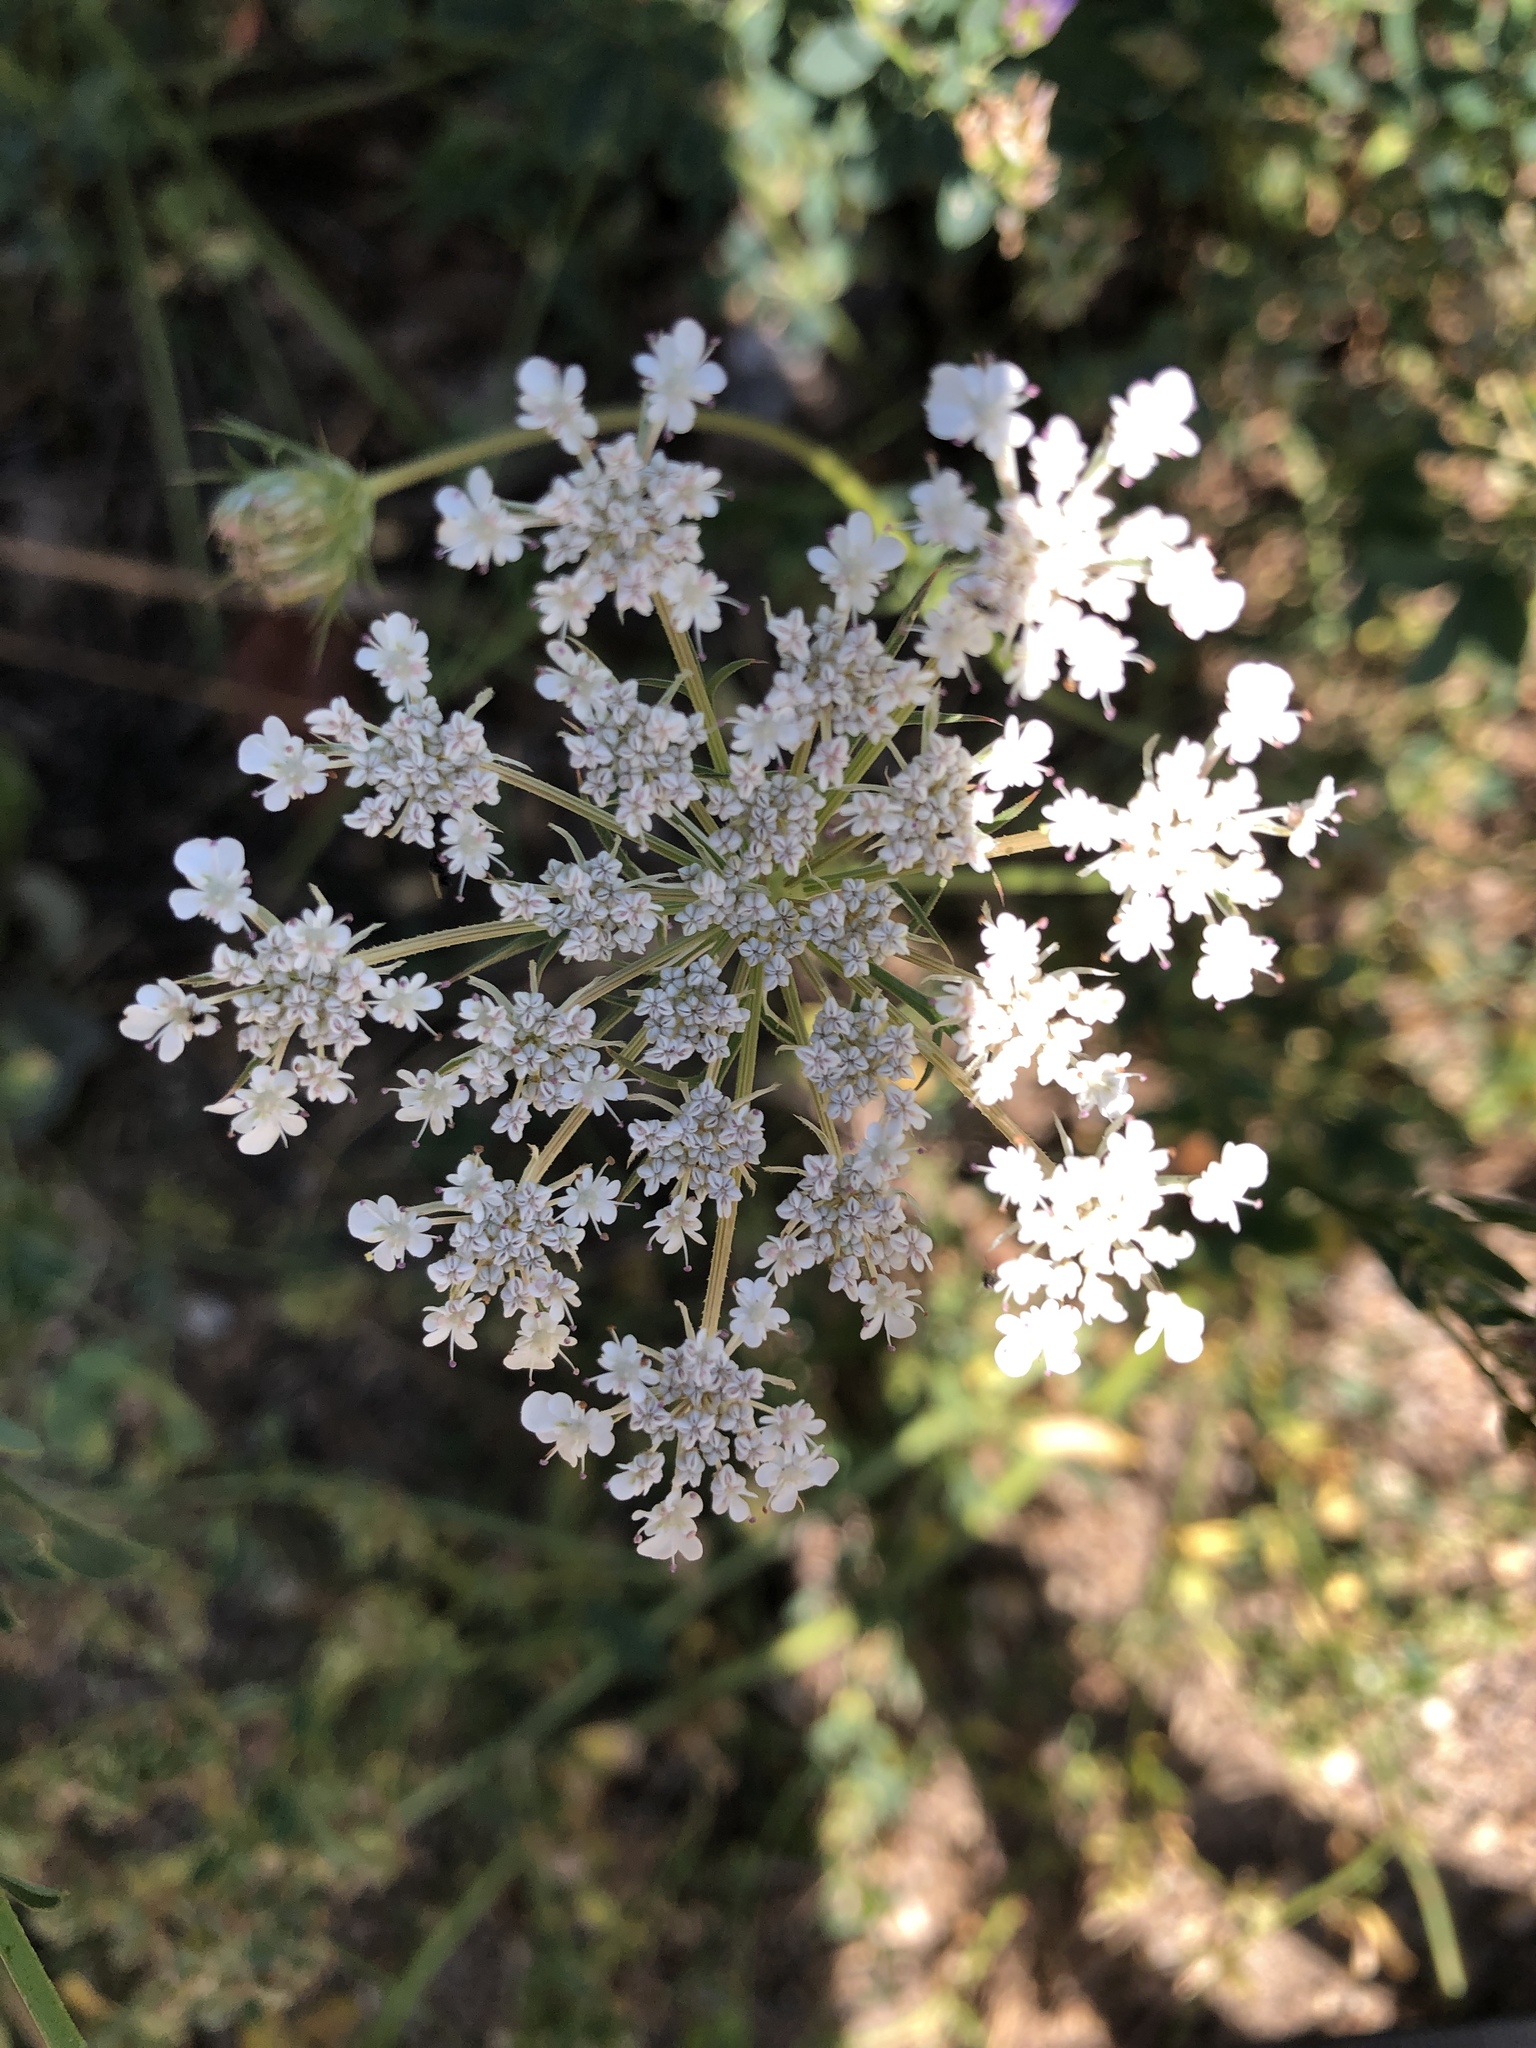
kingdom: Plantae
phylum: Tracheophyta
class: Magnoliopsida
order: Apiales
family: Apiaceae
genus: Daucus
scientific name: Daucus carota
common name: Wild carrot
